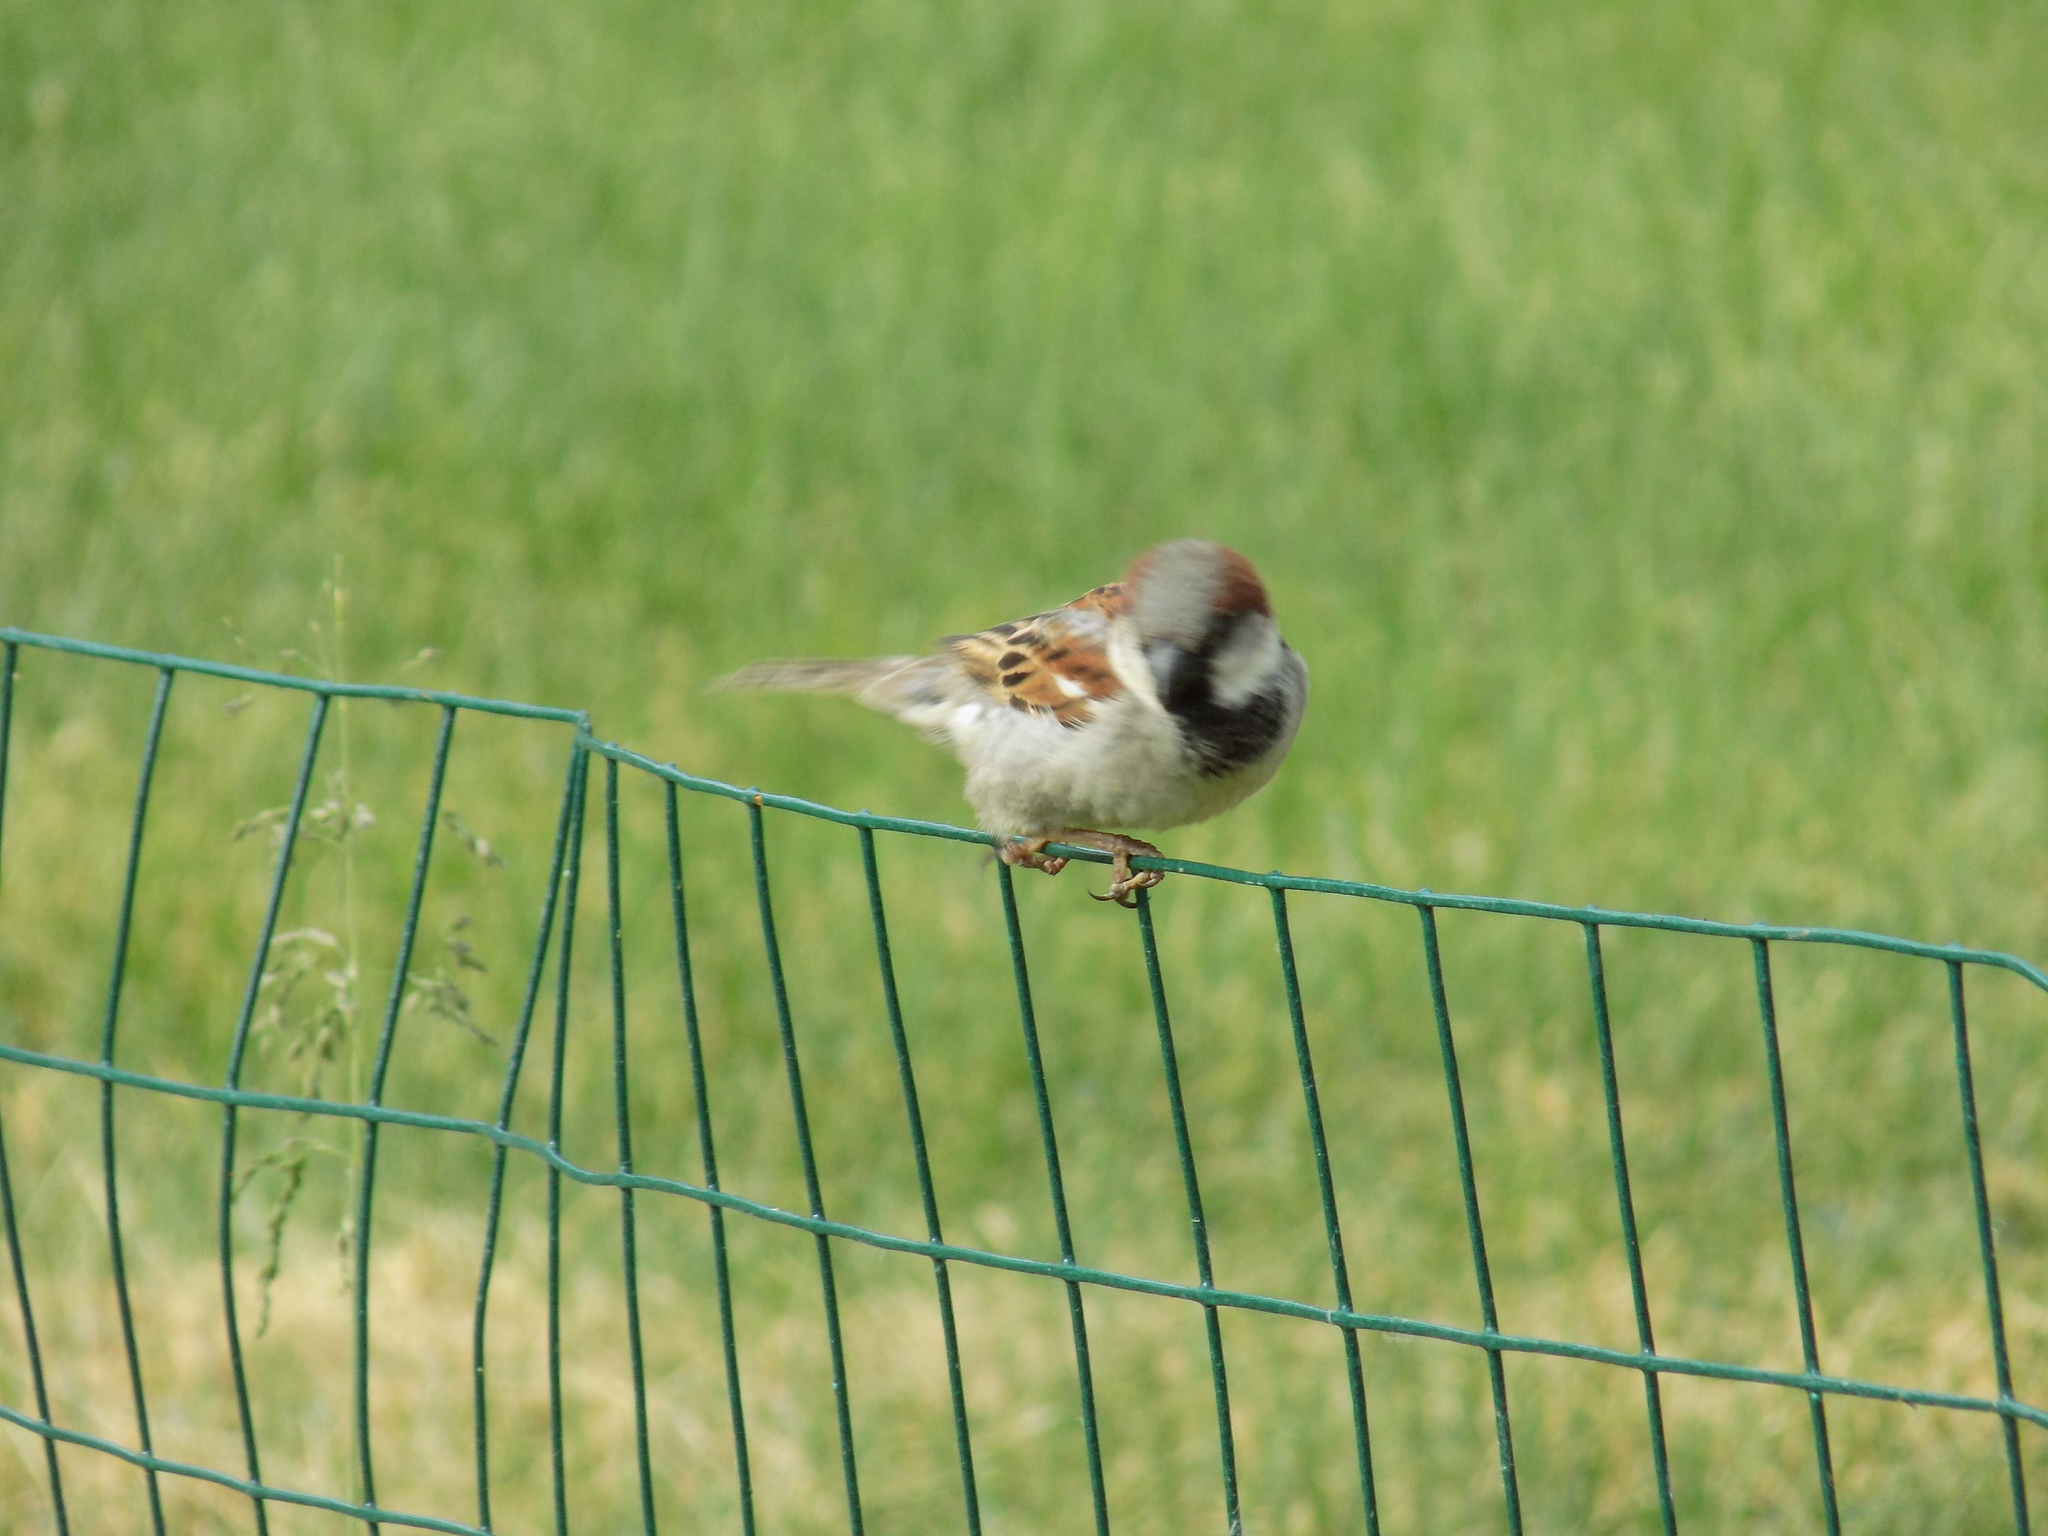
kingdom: Animalia
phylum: Chordata
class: Aves
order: Passeriformes
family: Passeridae
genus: Passer
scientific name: Passer domesticus
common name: House sparrow
